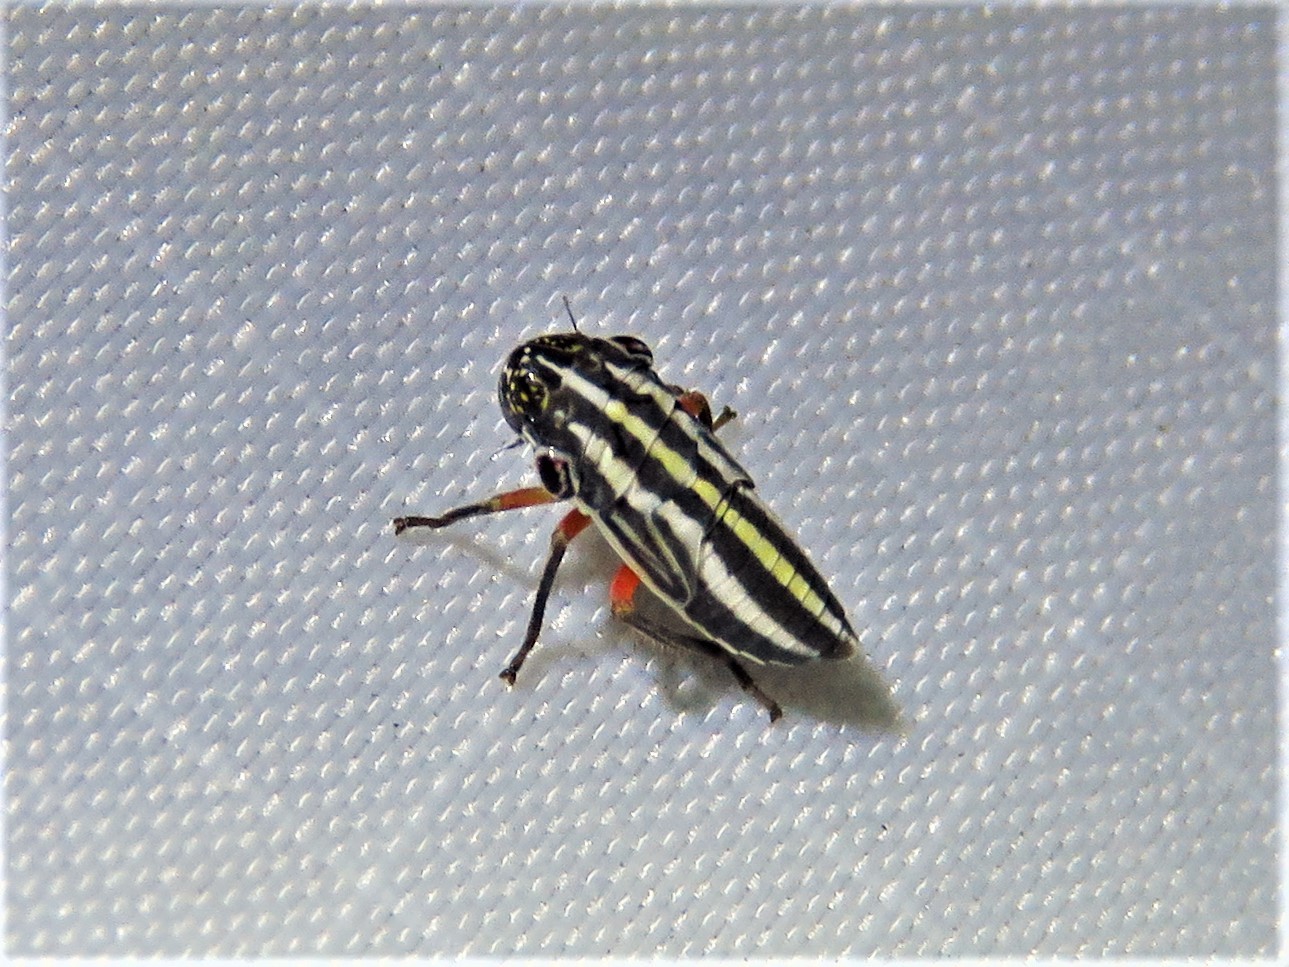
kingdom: Animalia
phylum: Arthropoda
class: Insecta
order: Hemiptera
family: Cicadellidae
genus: Cuerna
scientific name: Cuerna costalis
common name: Lateral-lined sharpshooter
